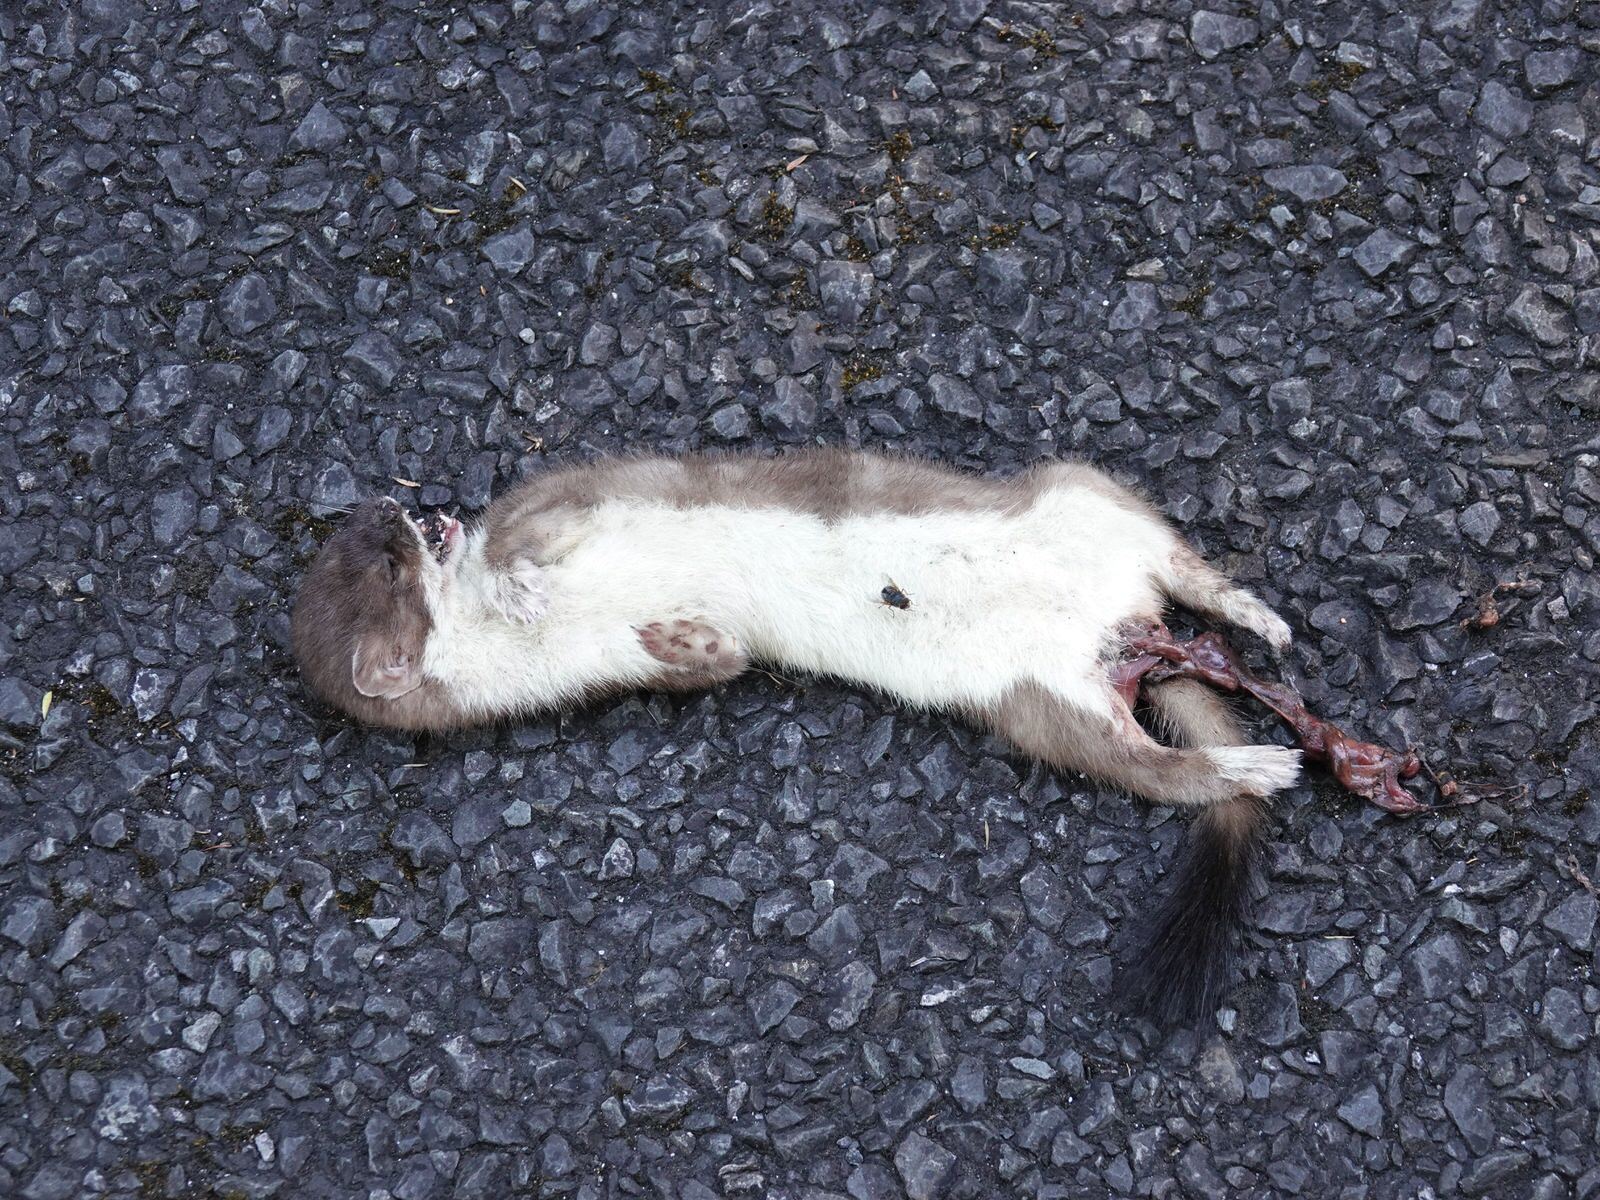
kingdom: Animalia
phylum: Chordata
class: Mammalia
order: Carnivora
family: Mustelidae
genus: Mustela
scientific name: Mustela erminea
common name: Stoat
